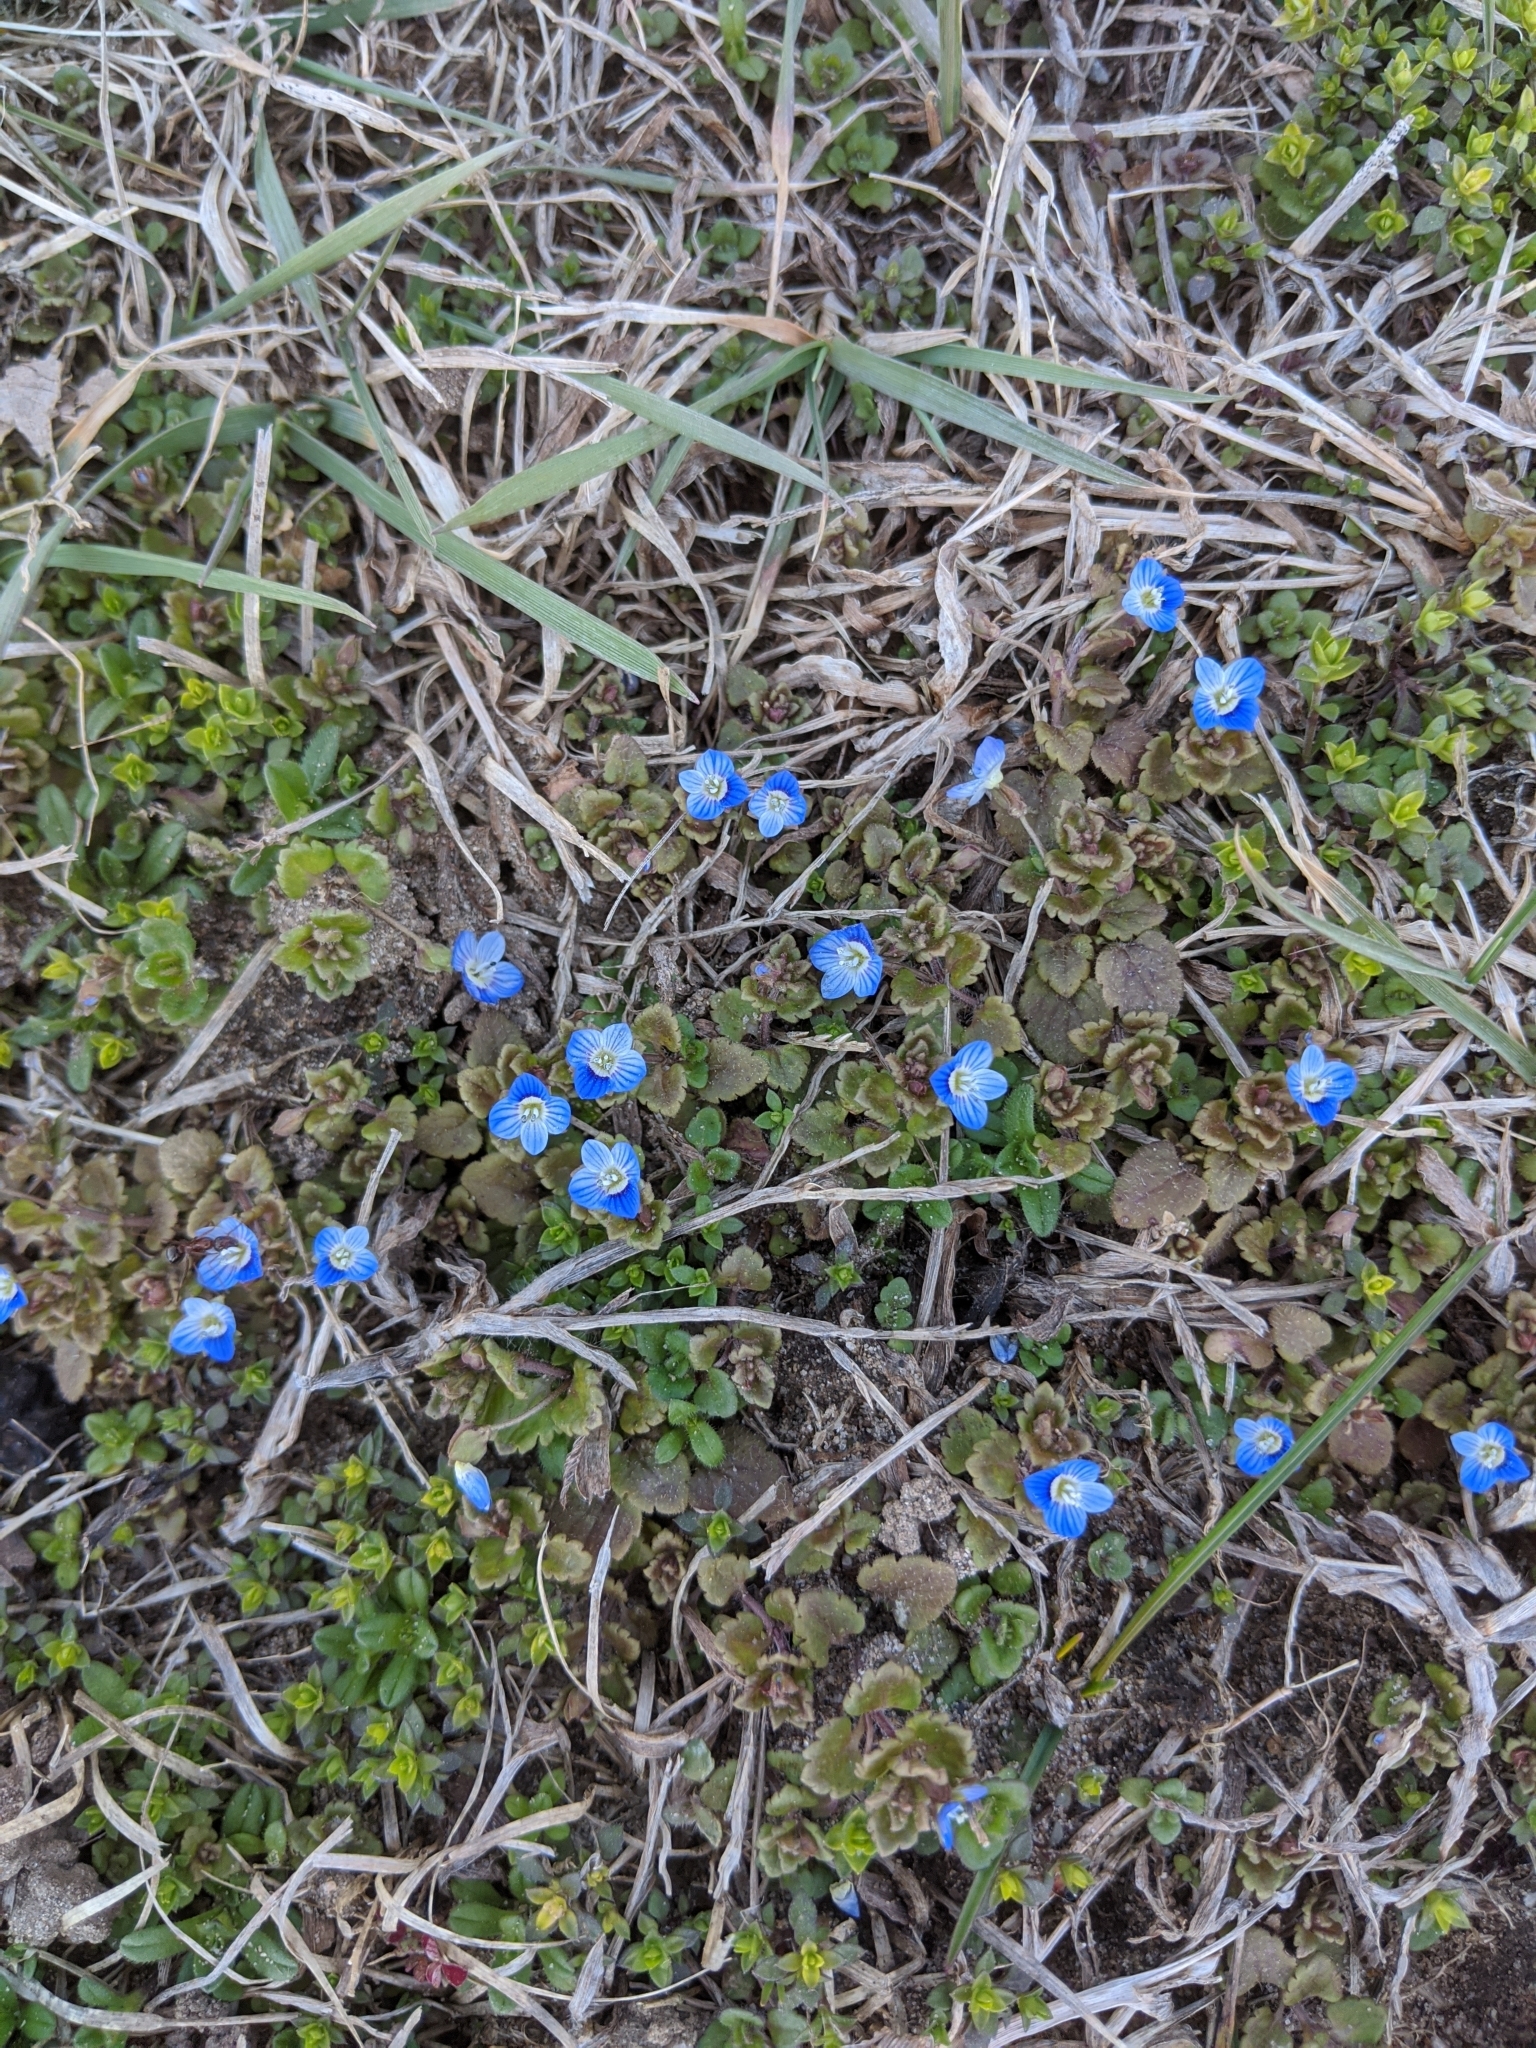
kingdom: Plantae
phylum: Tracheophyta
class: Magnoliopsida
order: Lamiales
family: Plantaginaceae
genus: Veronica
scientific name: Veronica persica
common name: Common field-speedwell
